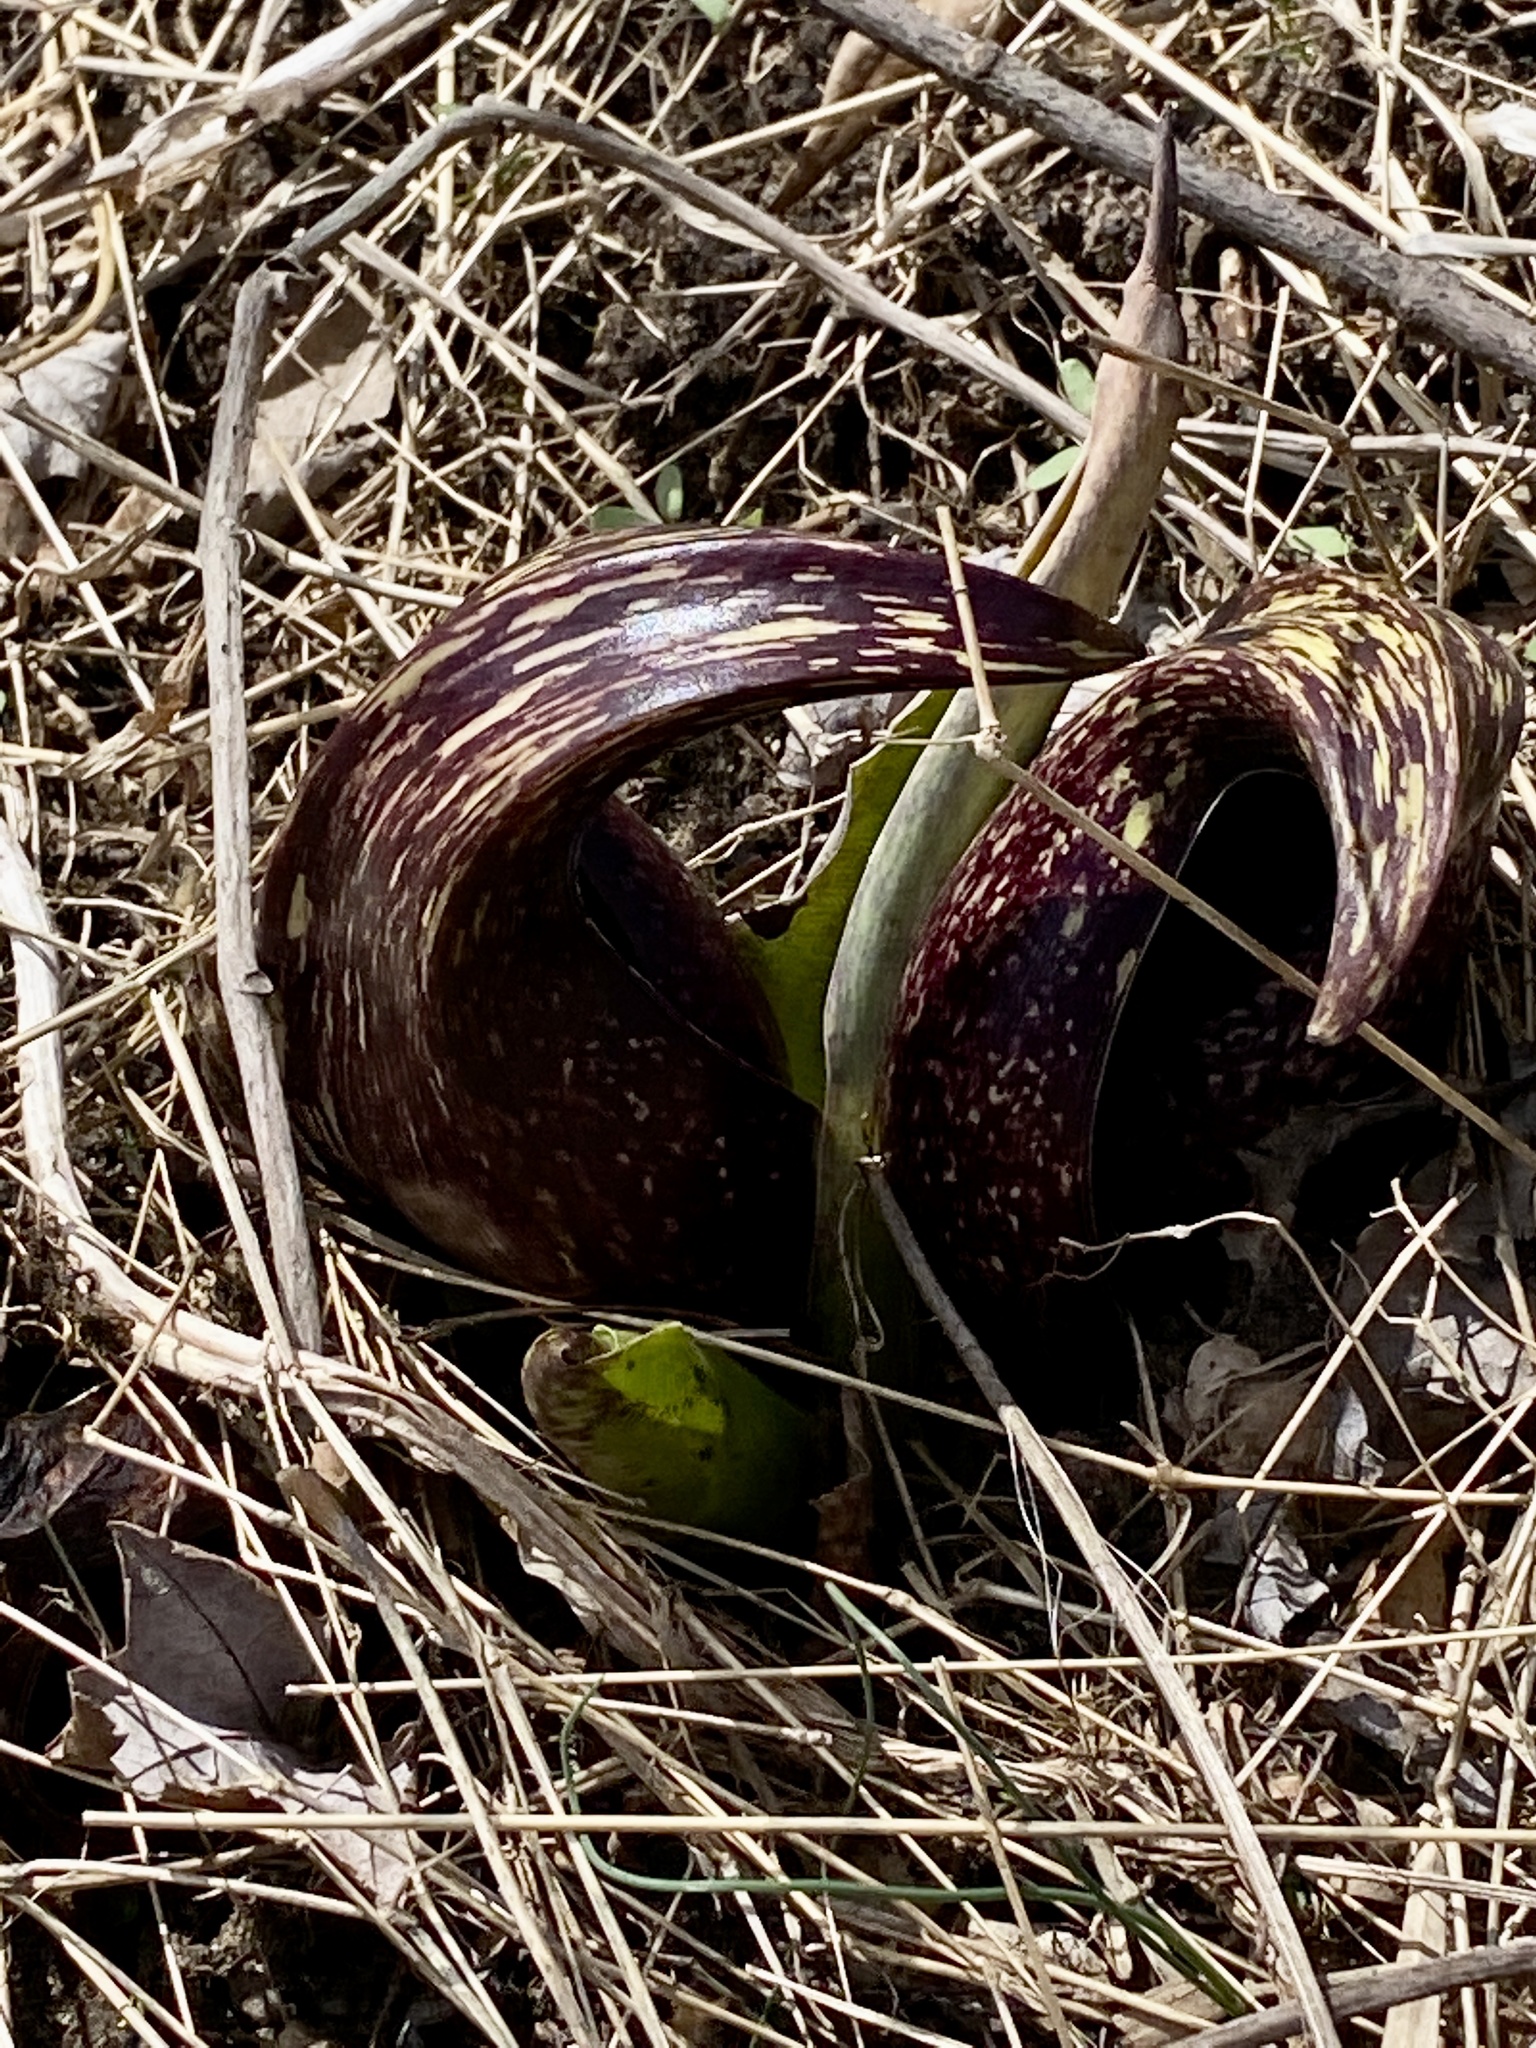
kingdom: Plantae
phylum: Tracheophyta
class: Liliopsida
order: Alismatales
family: Araceae
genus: Symplocarpus
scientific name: Symplocarpus foetidus
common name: Eastern skunk cabbage
